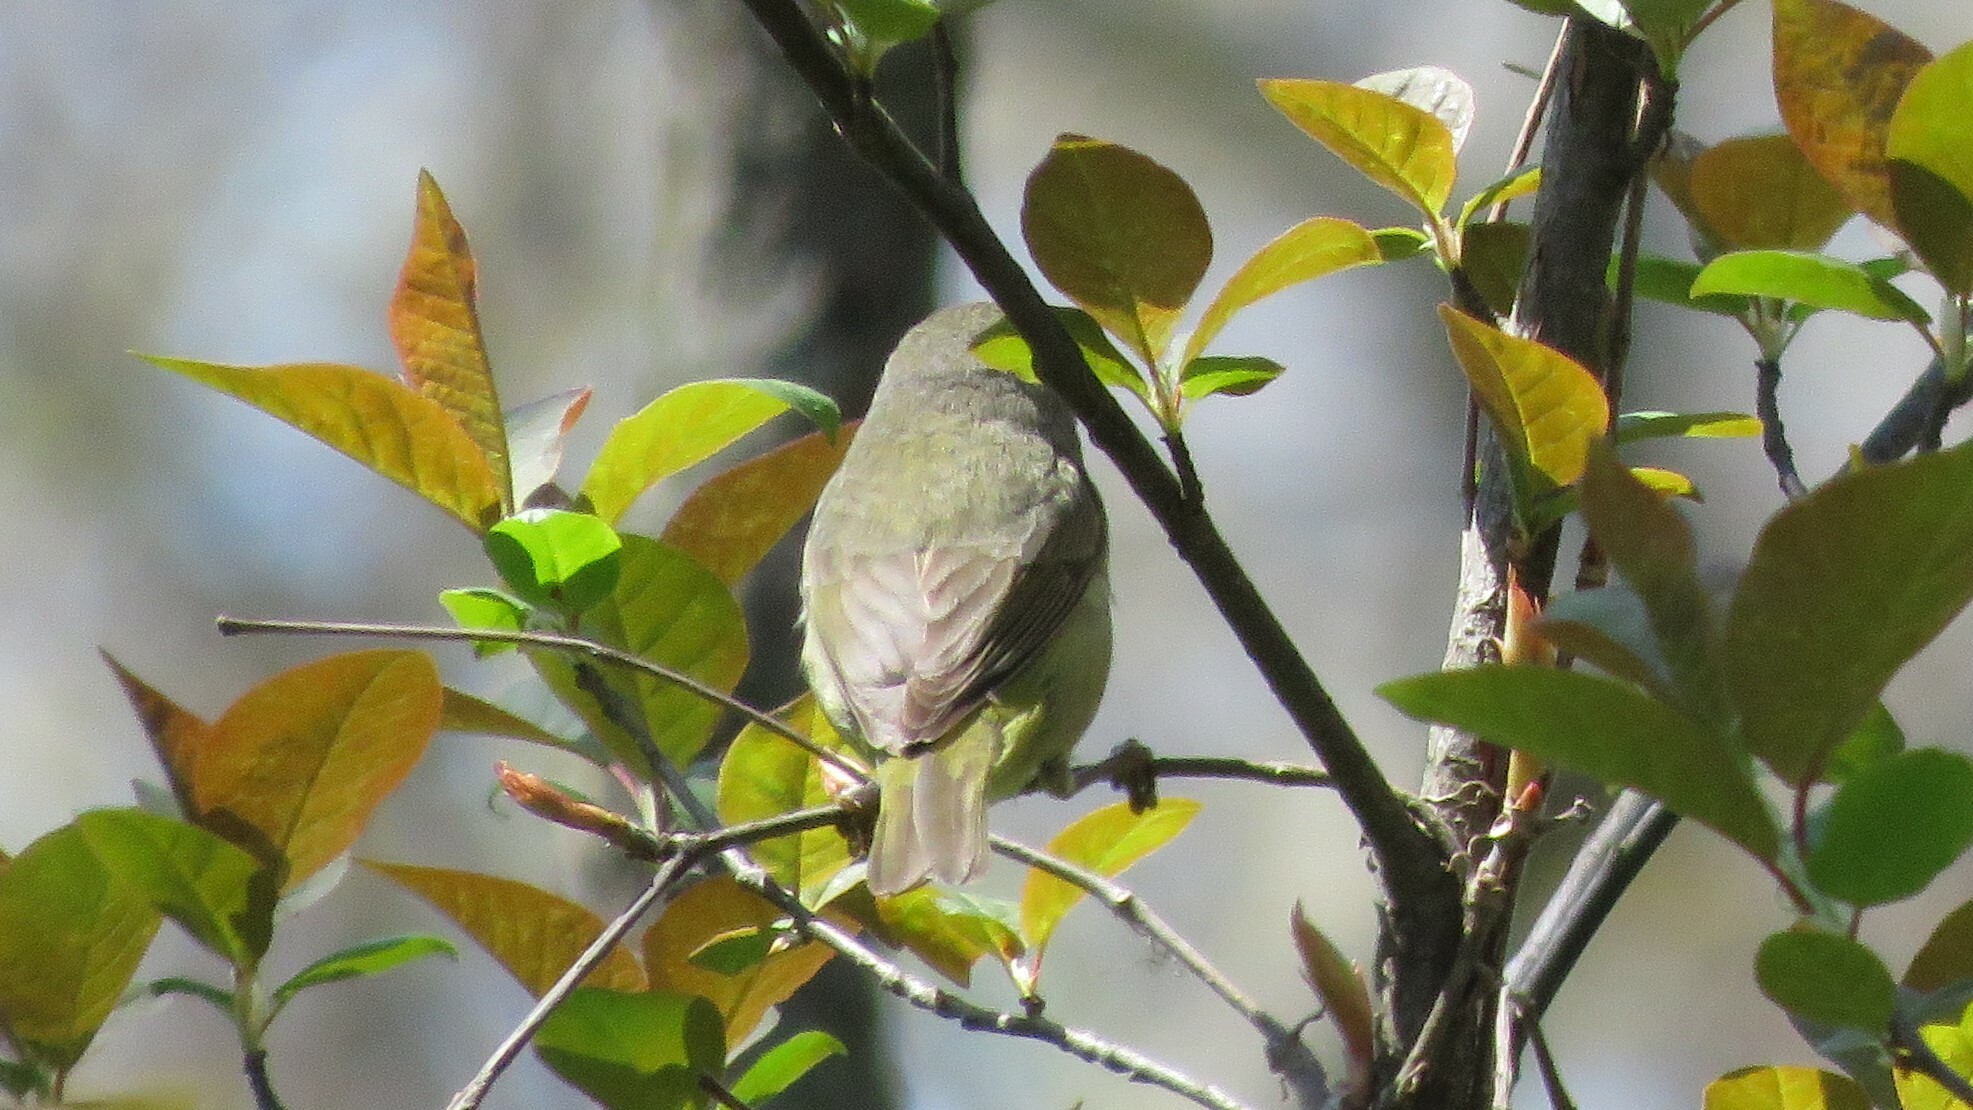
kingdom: Animalia
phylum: Chordata
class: Aves
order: Passeriformes
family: Parulidae
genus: Leiothlypis
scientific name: Leiothlypis celata
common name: Orange-crowned warbler
